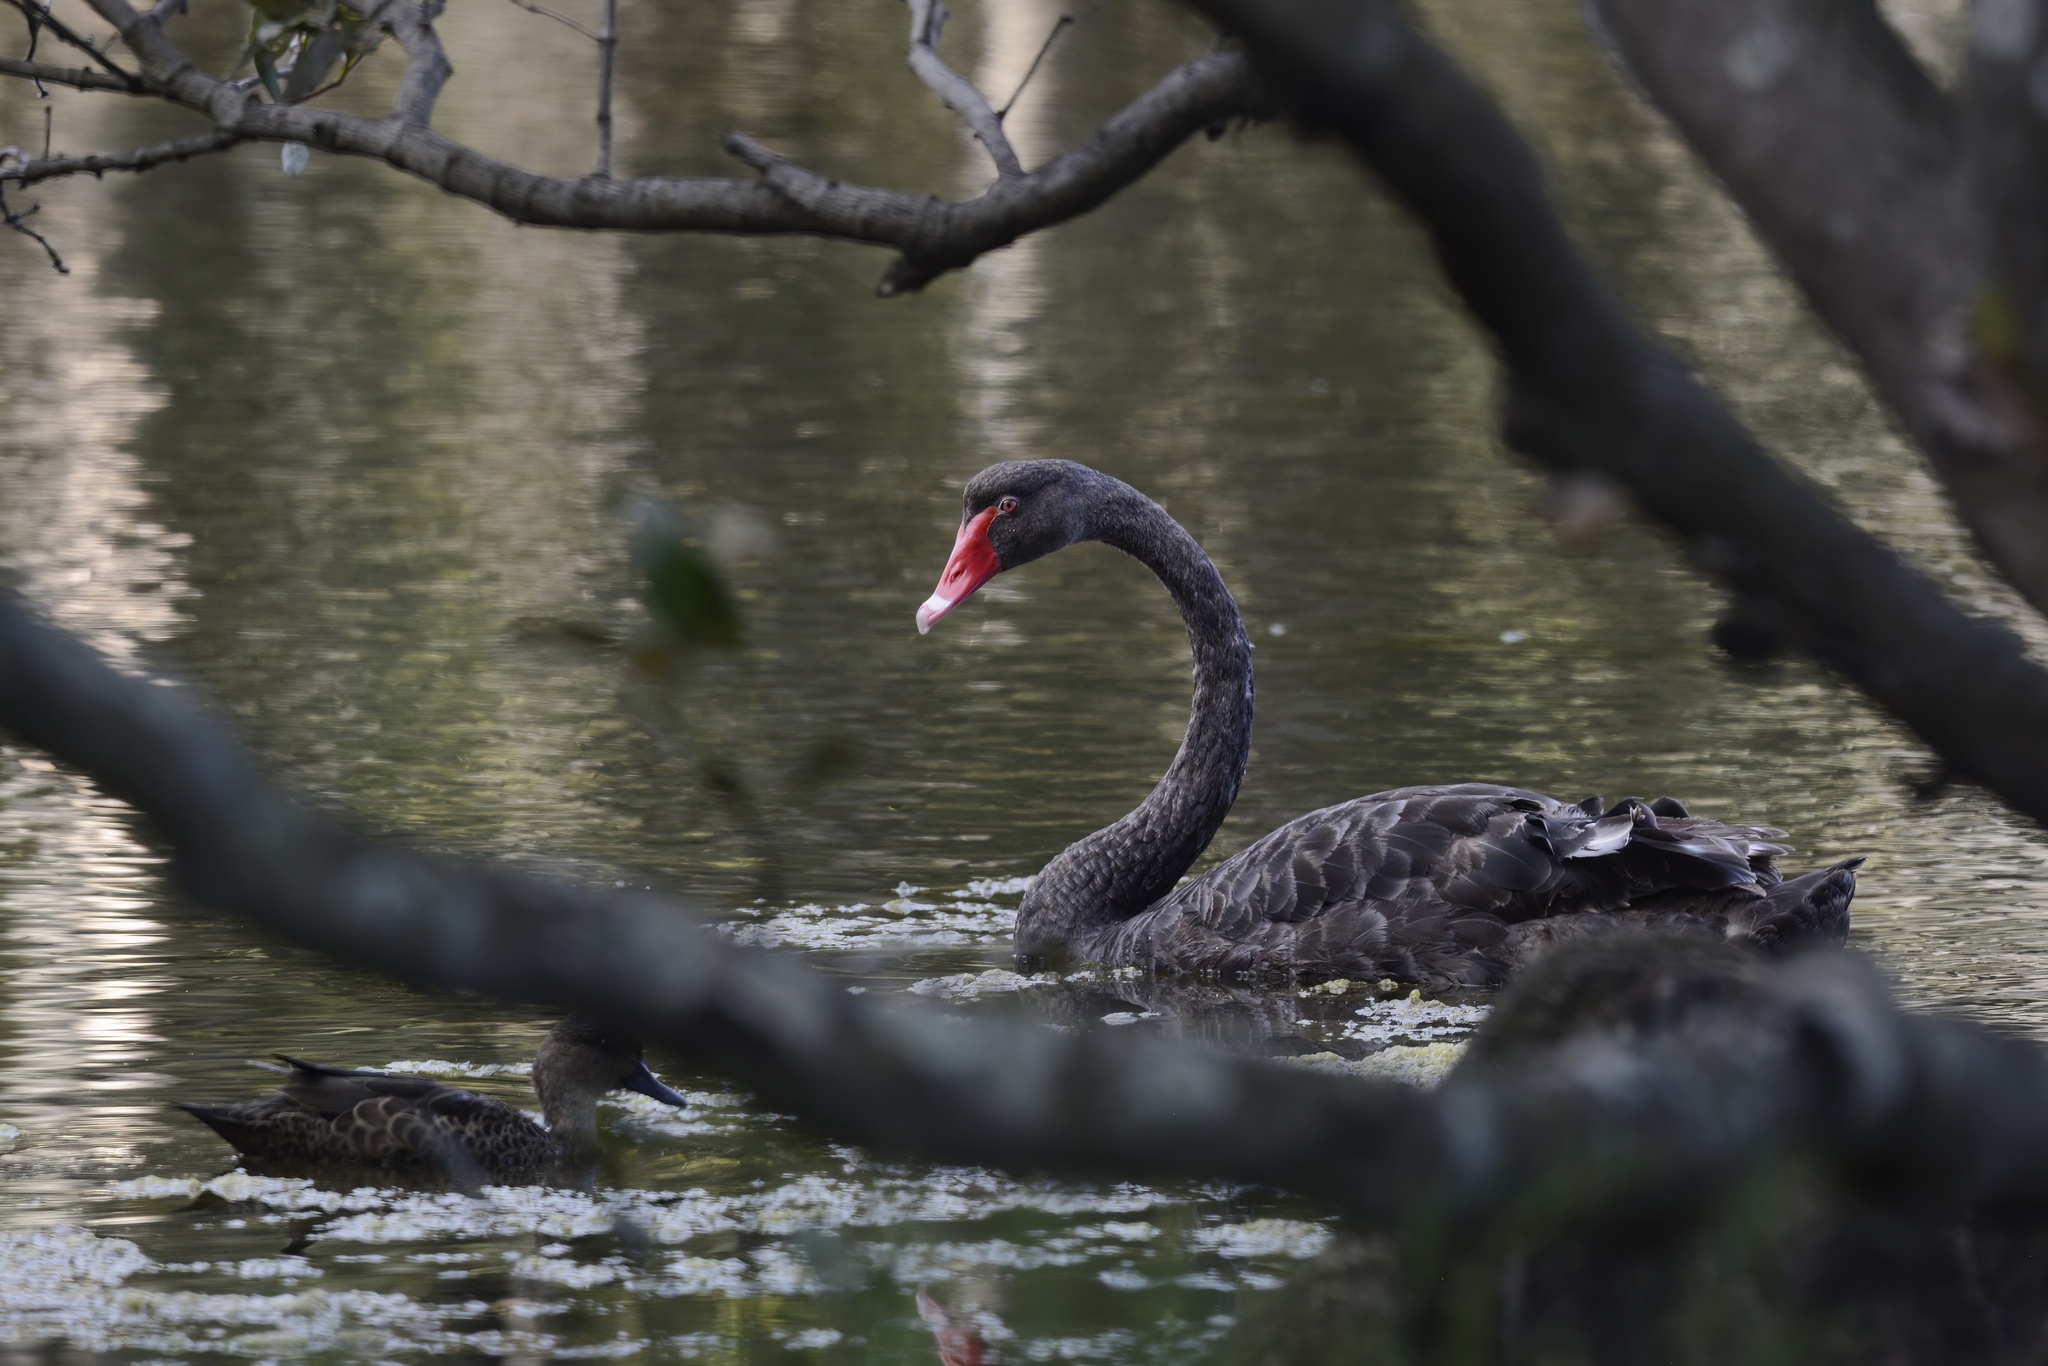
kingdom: Animalia
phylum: Chordata
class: Aves
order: Anseriformes
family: Anatidae
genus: Cygnus
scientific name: Cygnus atratus
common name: Black swan
